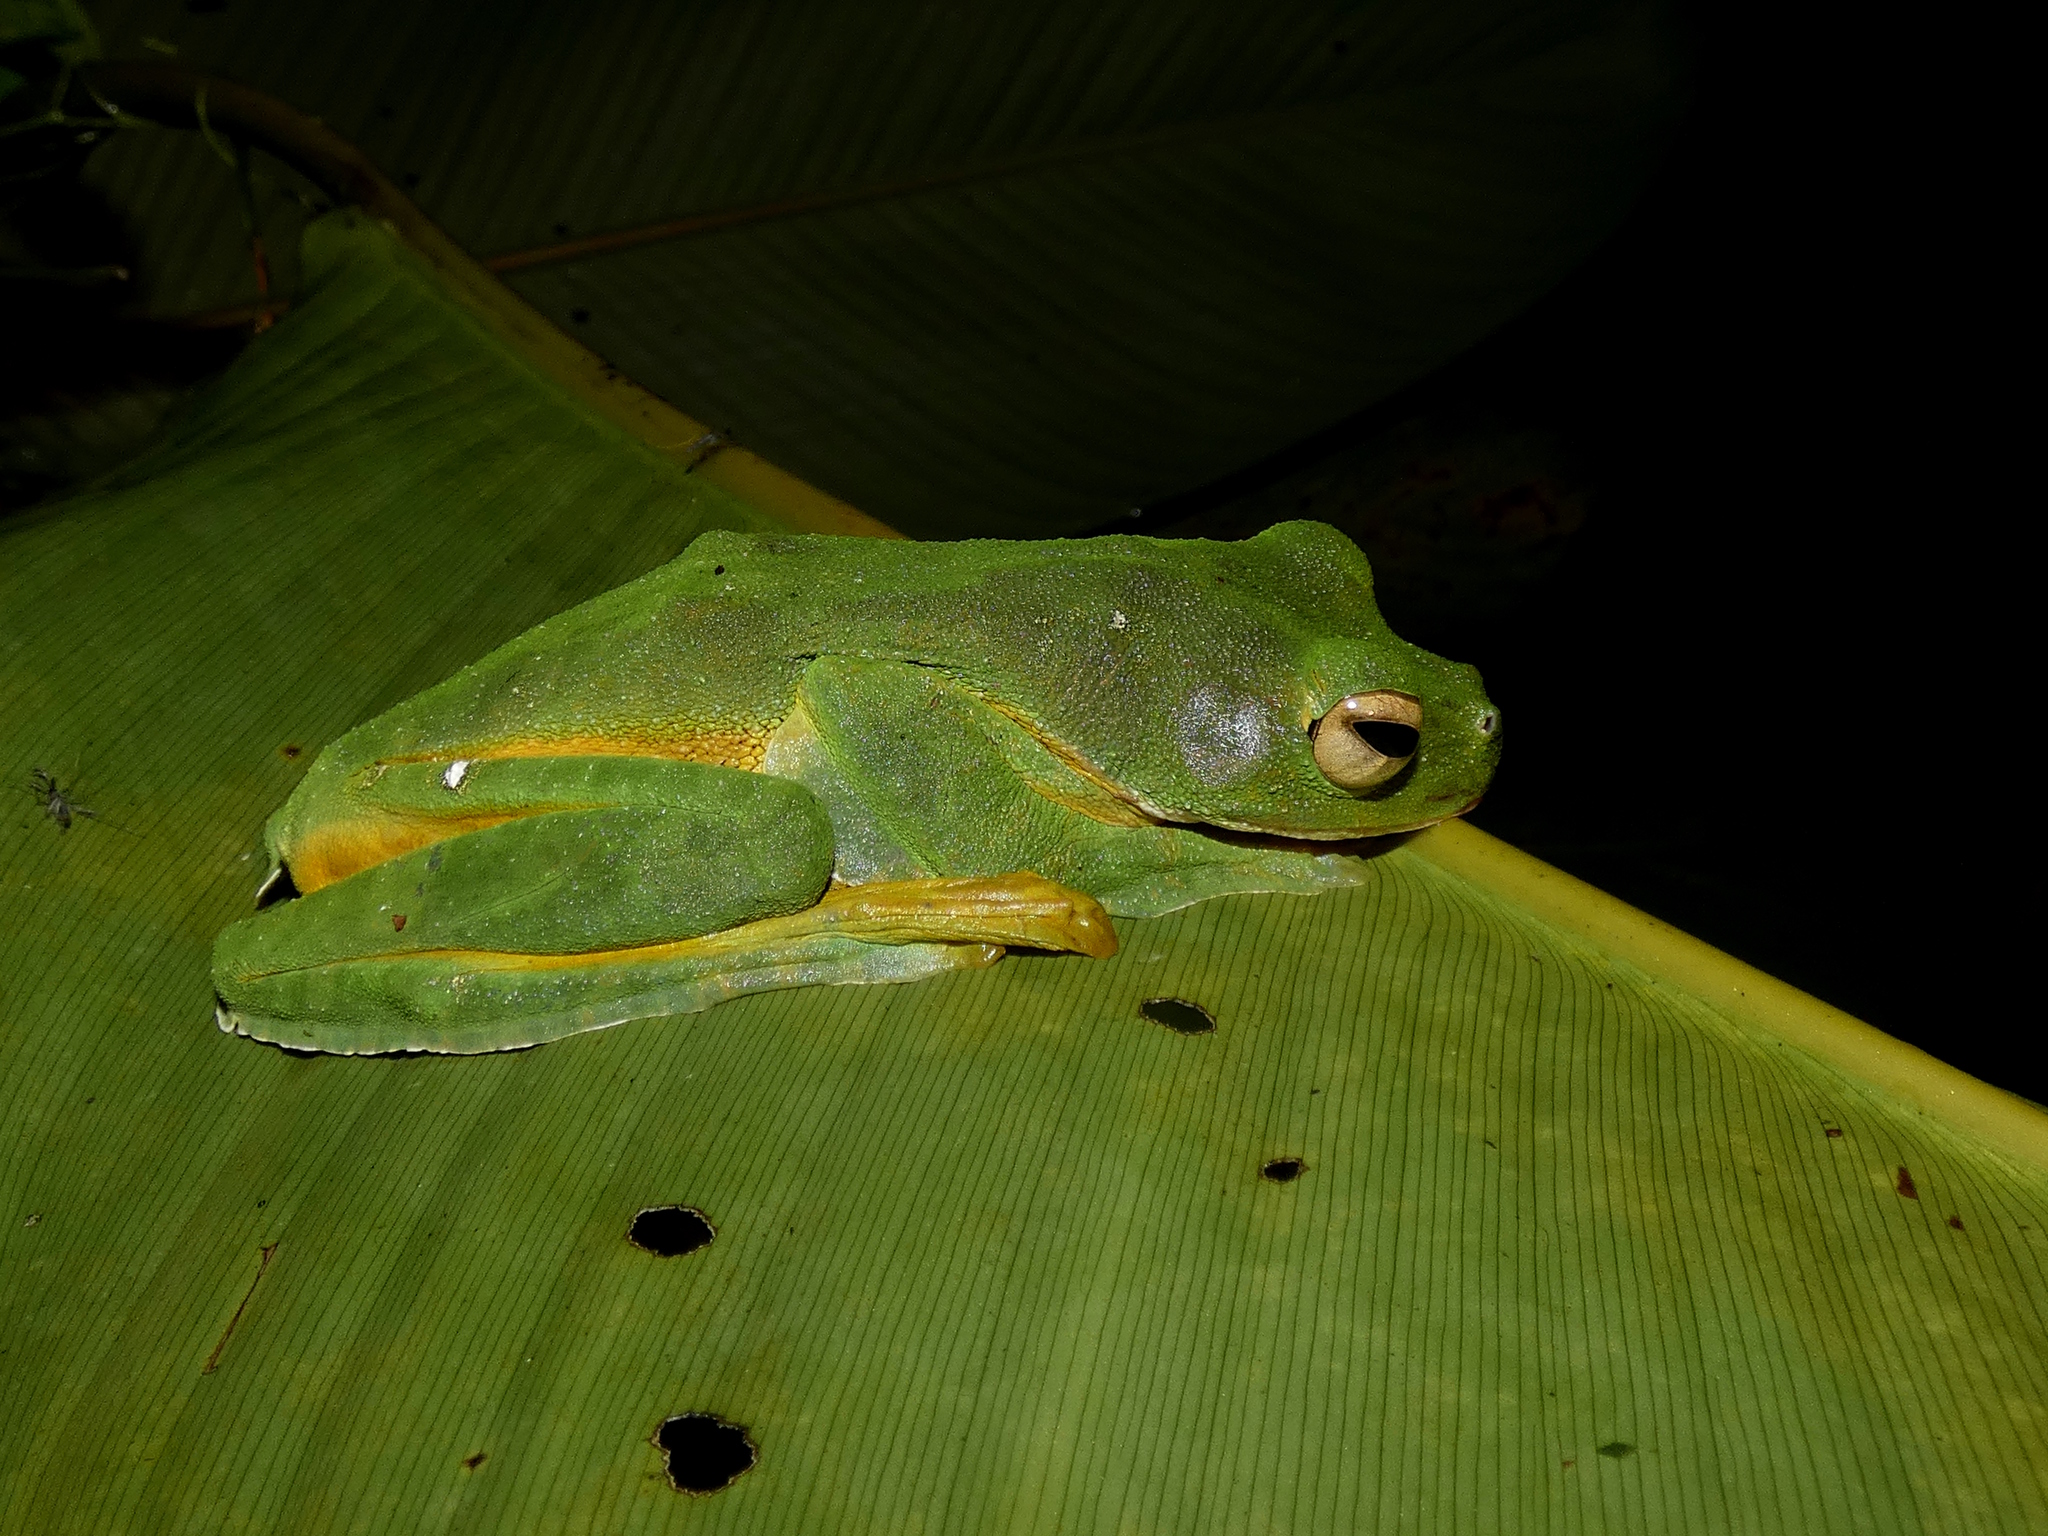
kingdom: Animalia
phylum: Chordata
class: Amphibia
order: Anura
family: Rhacophoridae
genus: Rhacophorus
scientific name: Rhacophorus nigropalmatus
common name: Wallace’s flying frog
